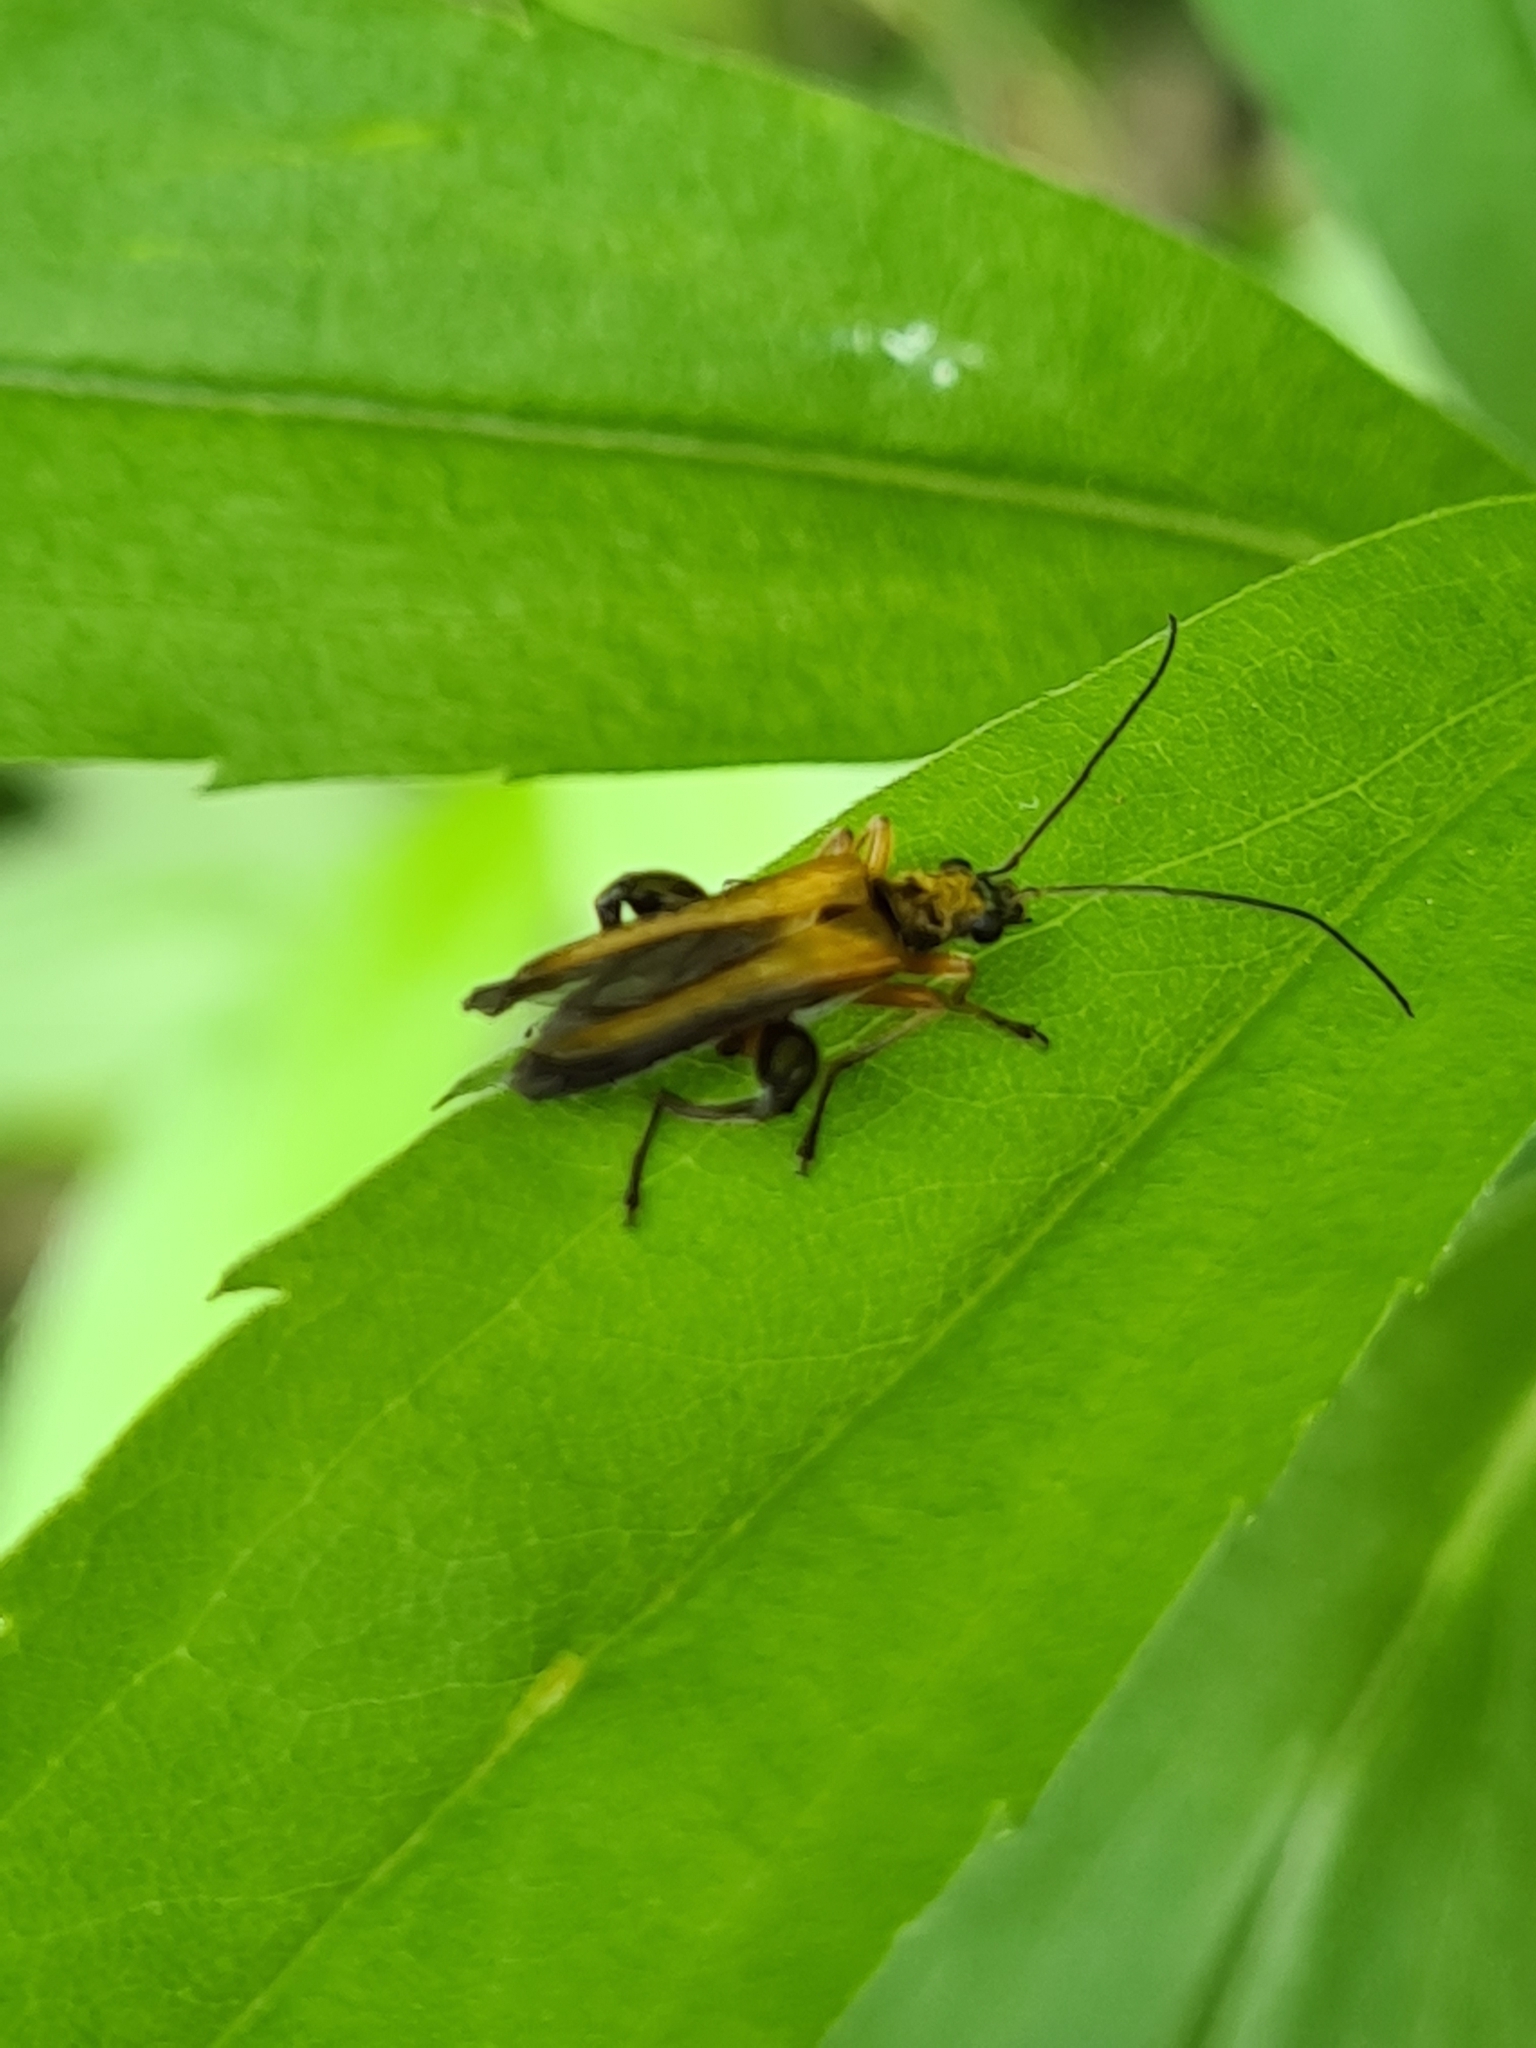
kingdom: Animalia
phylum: Arthropoda
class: Insecta
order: Coleoptera
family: Oedemeridae
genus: Oedemera
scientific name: Oedemera podagrariae
